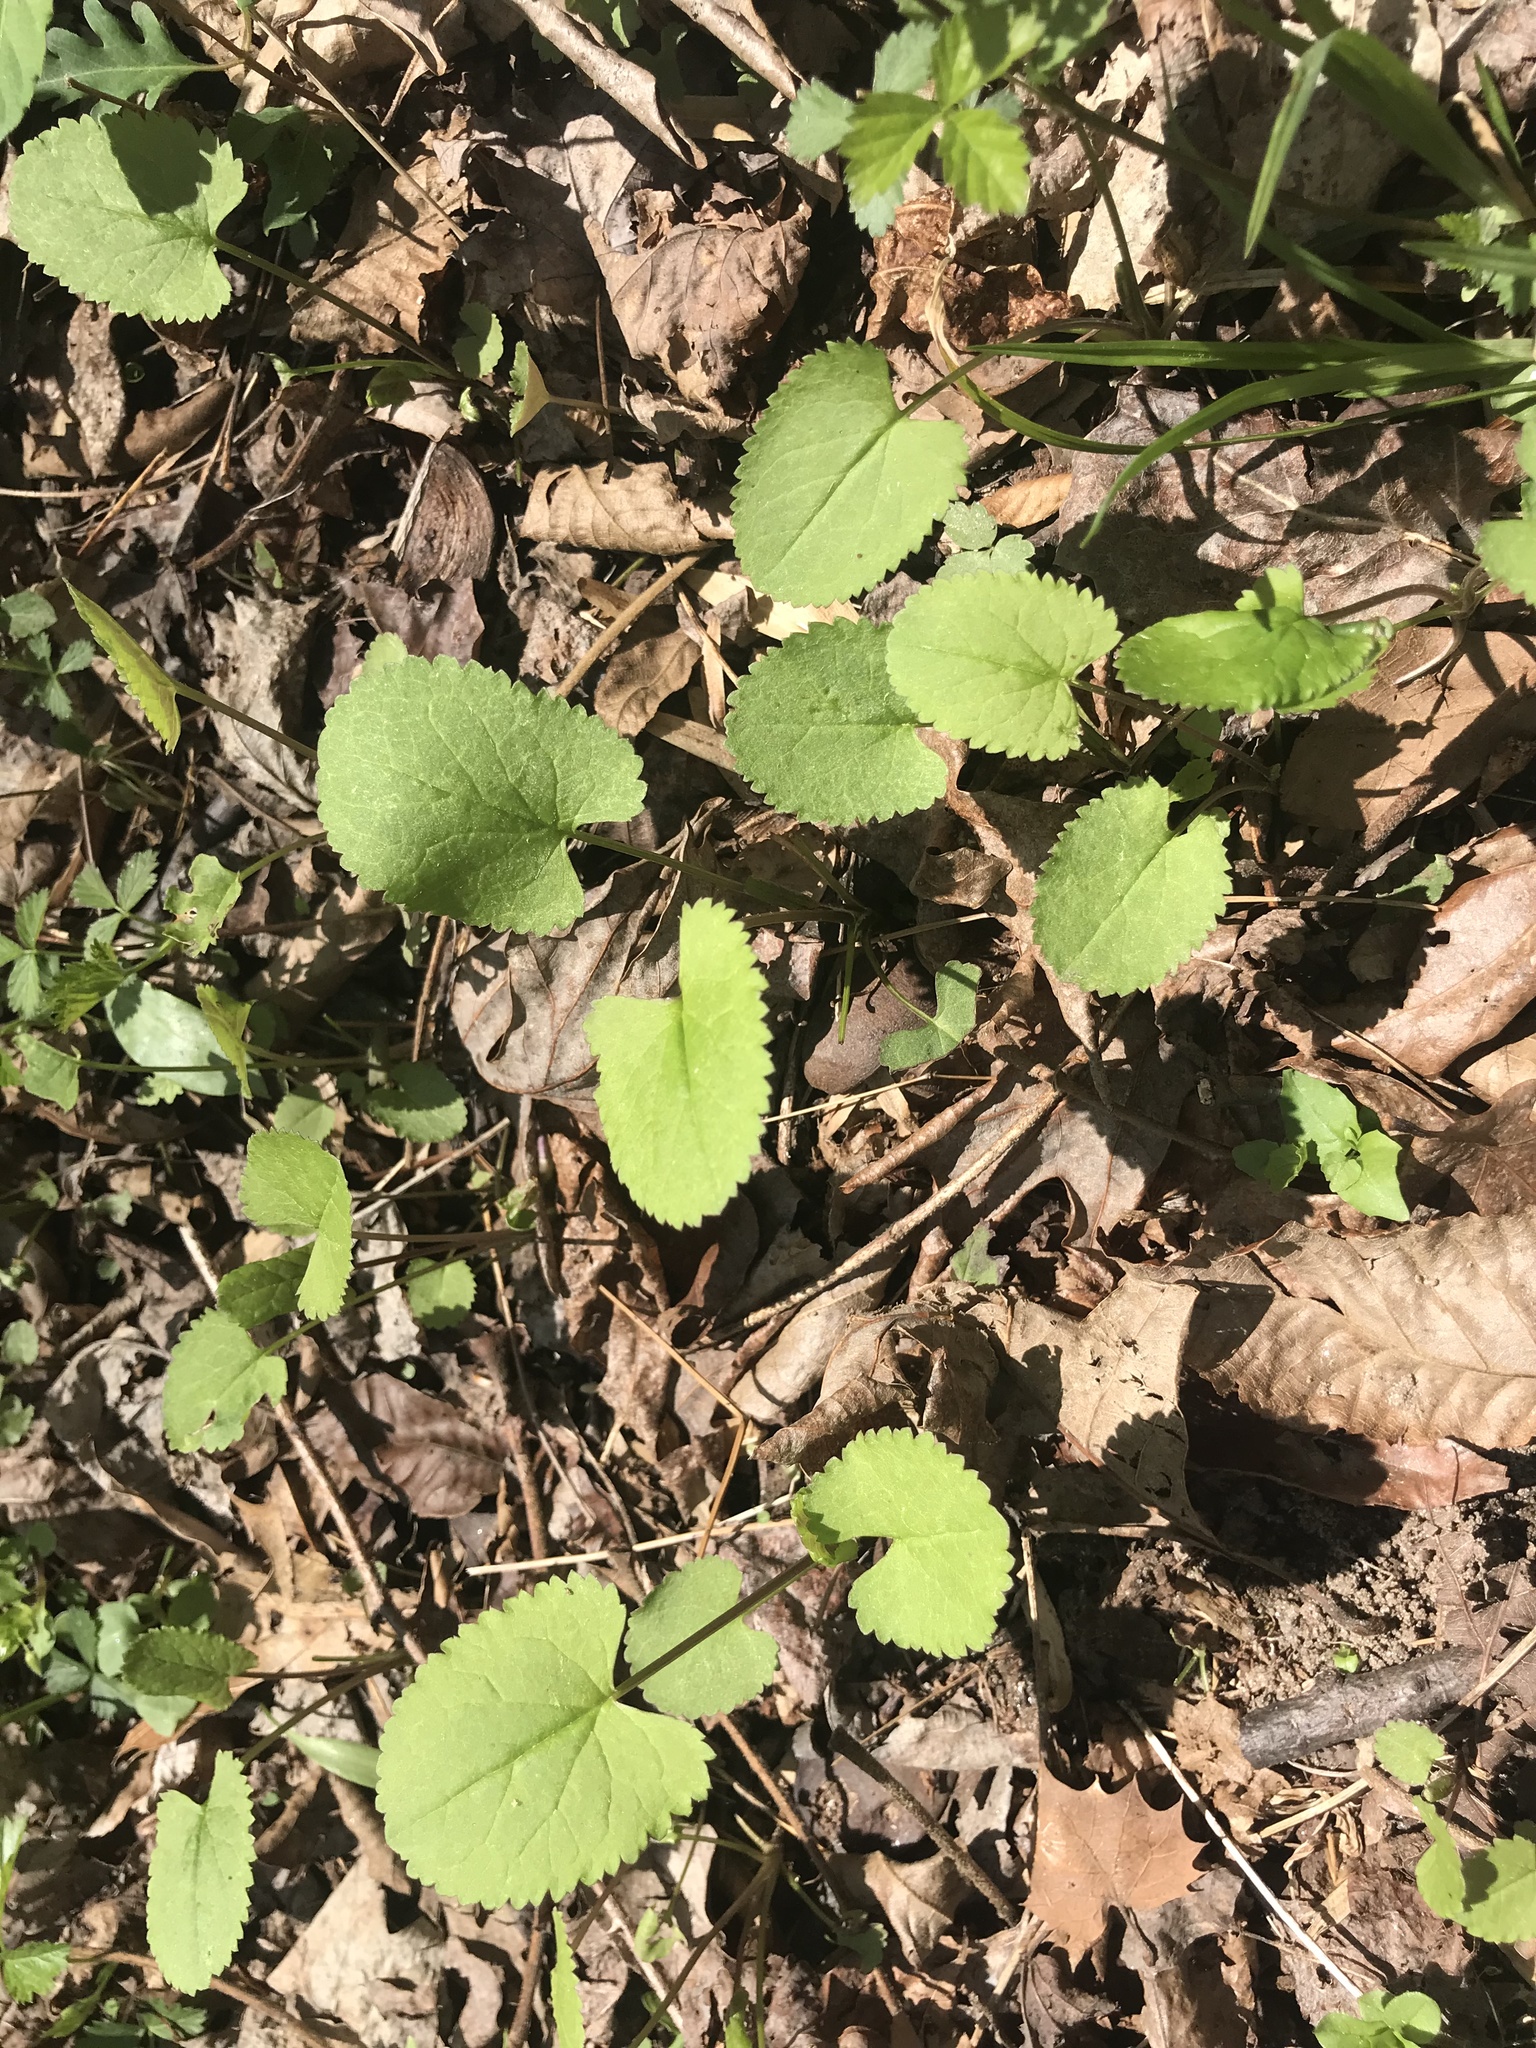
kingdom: Plantae
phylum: Tracheophyta
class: Magnoliopsida
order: Asterales
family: Asteraceae
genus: Packera
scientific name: Packera aurea
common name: Golden groundsel
